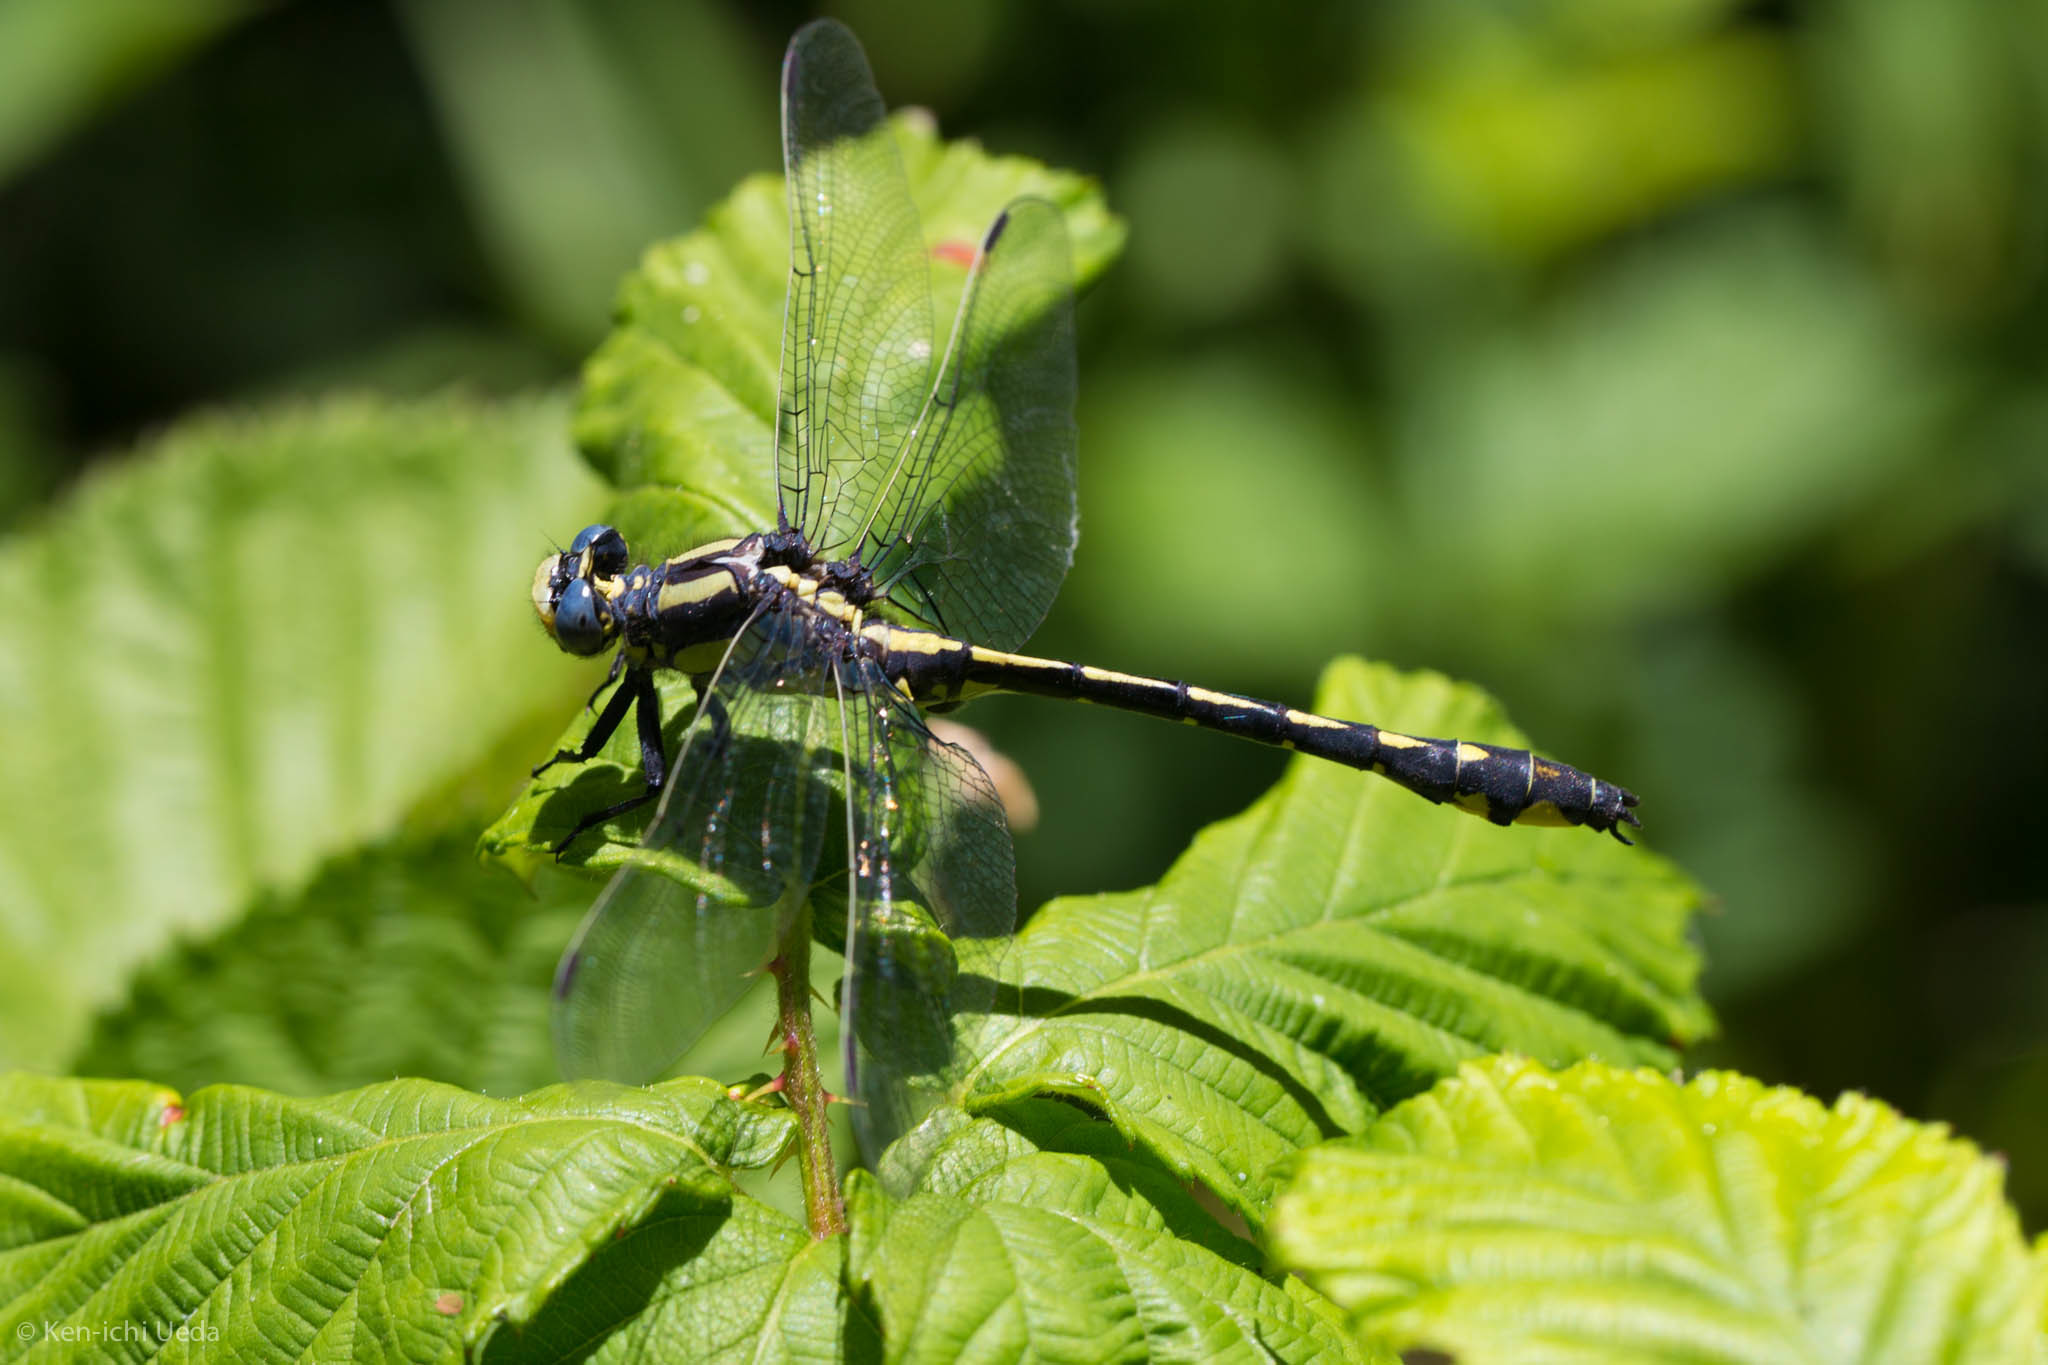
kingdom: Animalia
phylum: Arthropoda
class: Insecta
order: Odonata
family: Gomphidae
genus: Phanogomphus
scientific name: Phanogomphus kurilis
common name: Pacific clubtail
